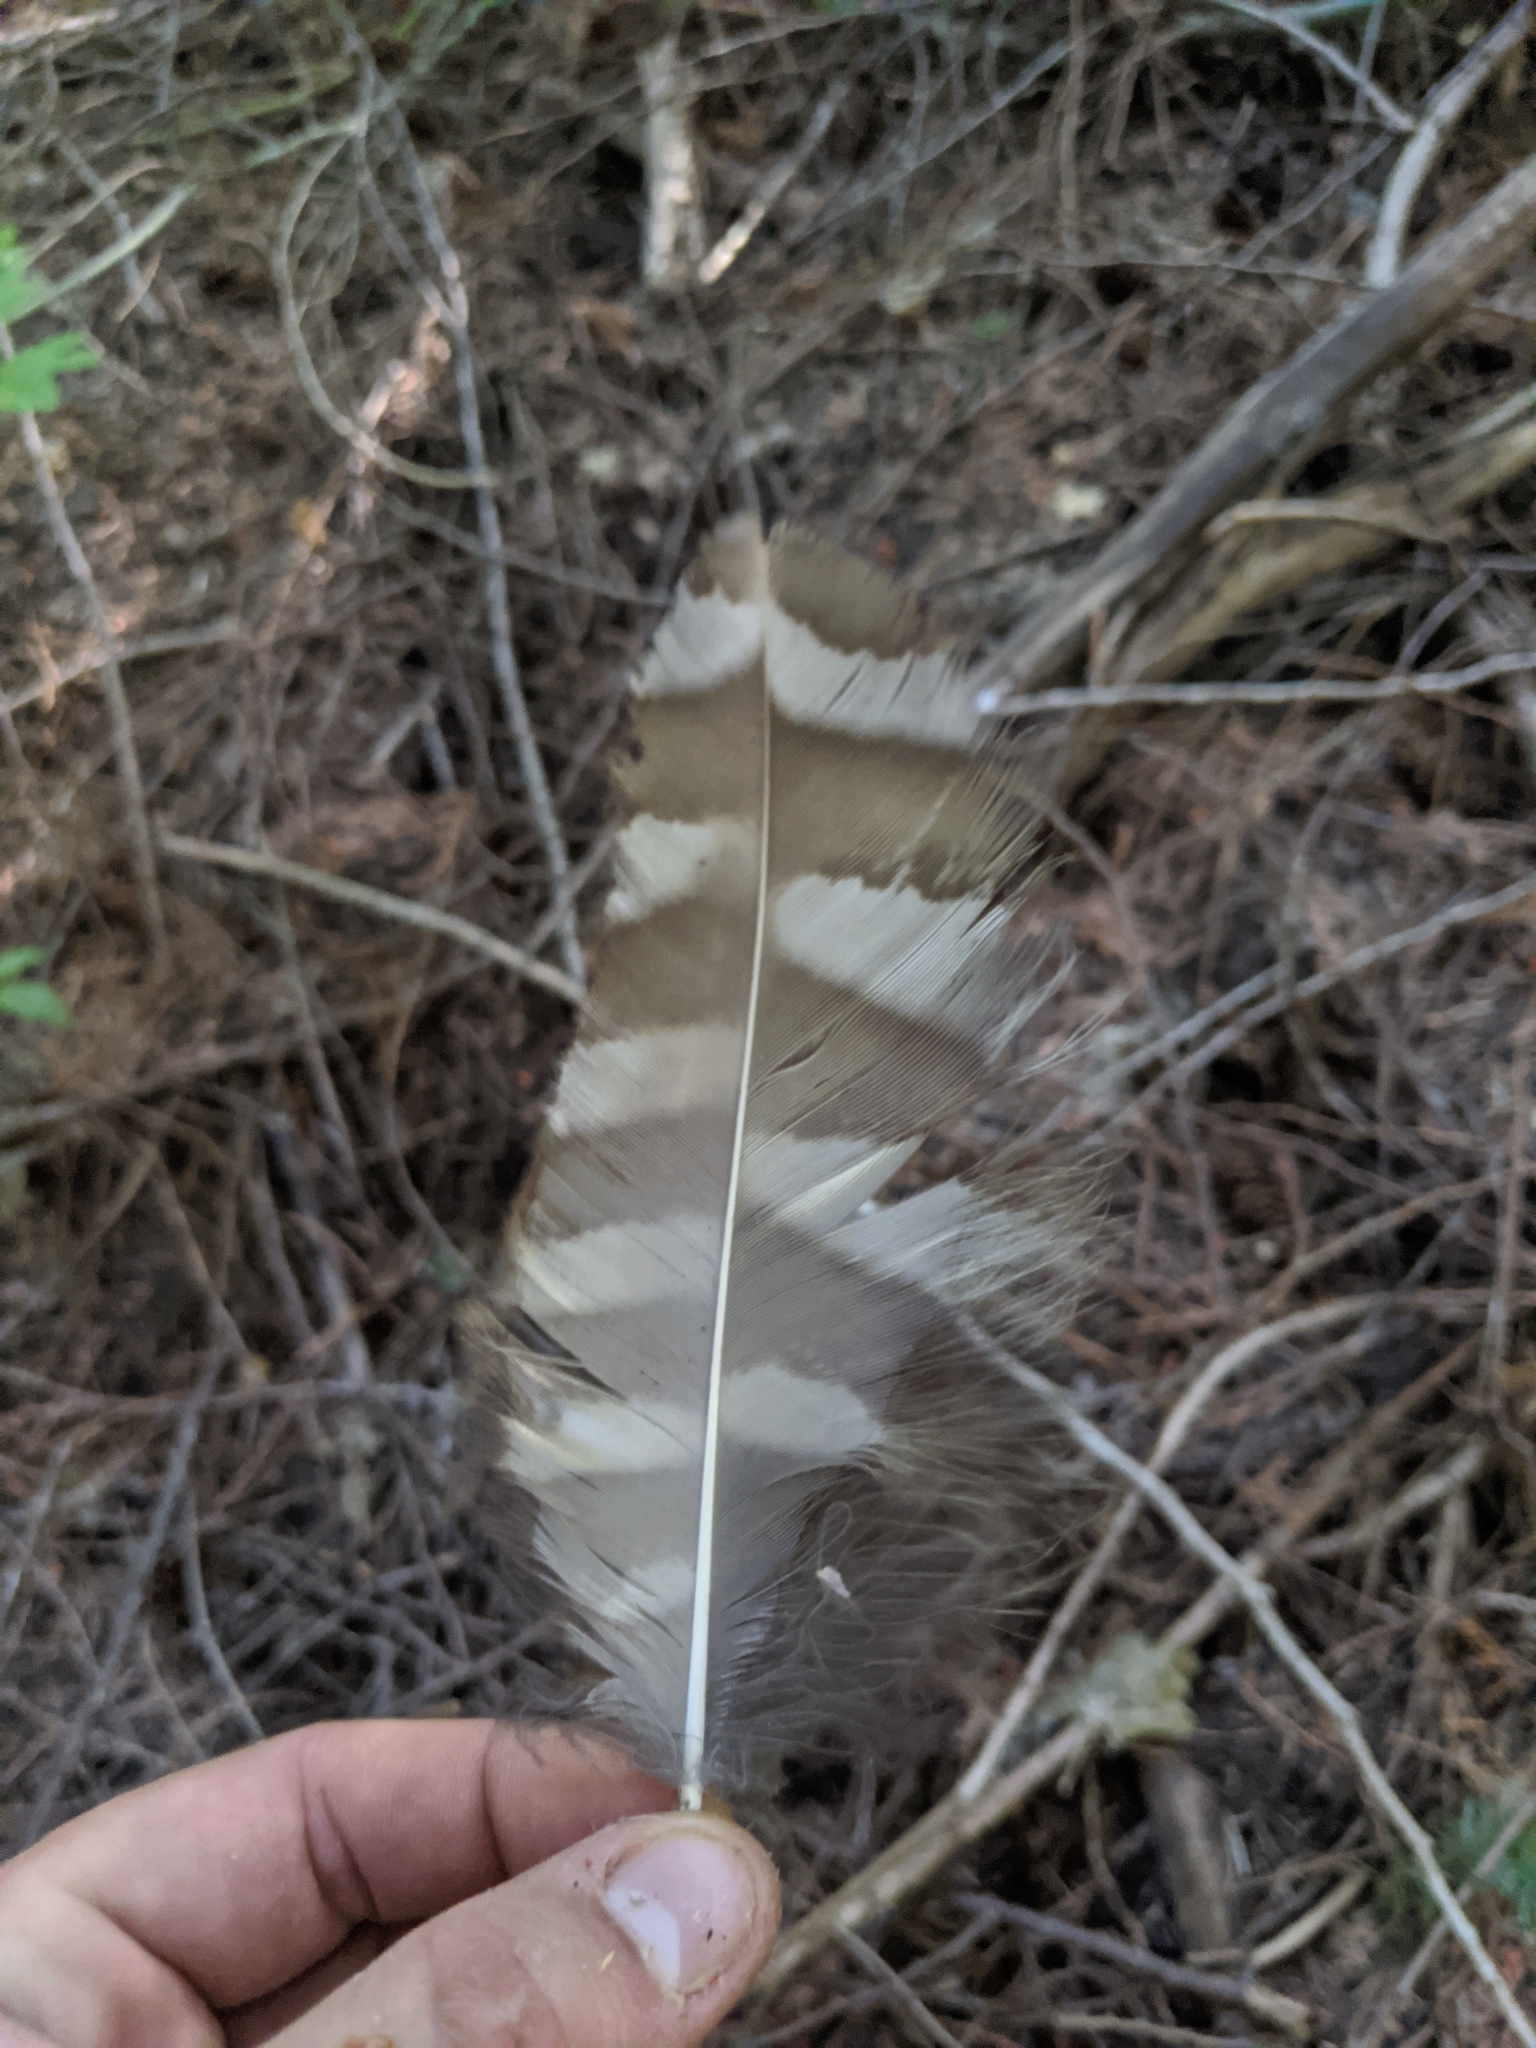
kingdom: Animalia
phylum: Chordata
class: Aves
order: Strigiformes
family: Strigidae
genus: Strix
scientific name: Strix varia
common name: Barred owl
